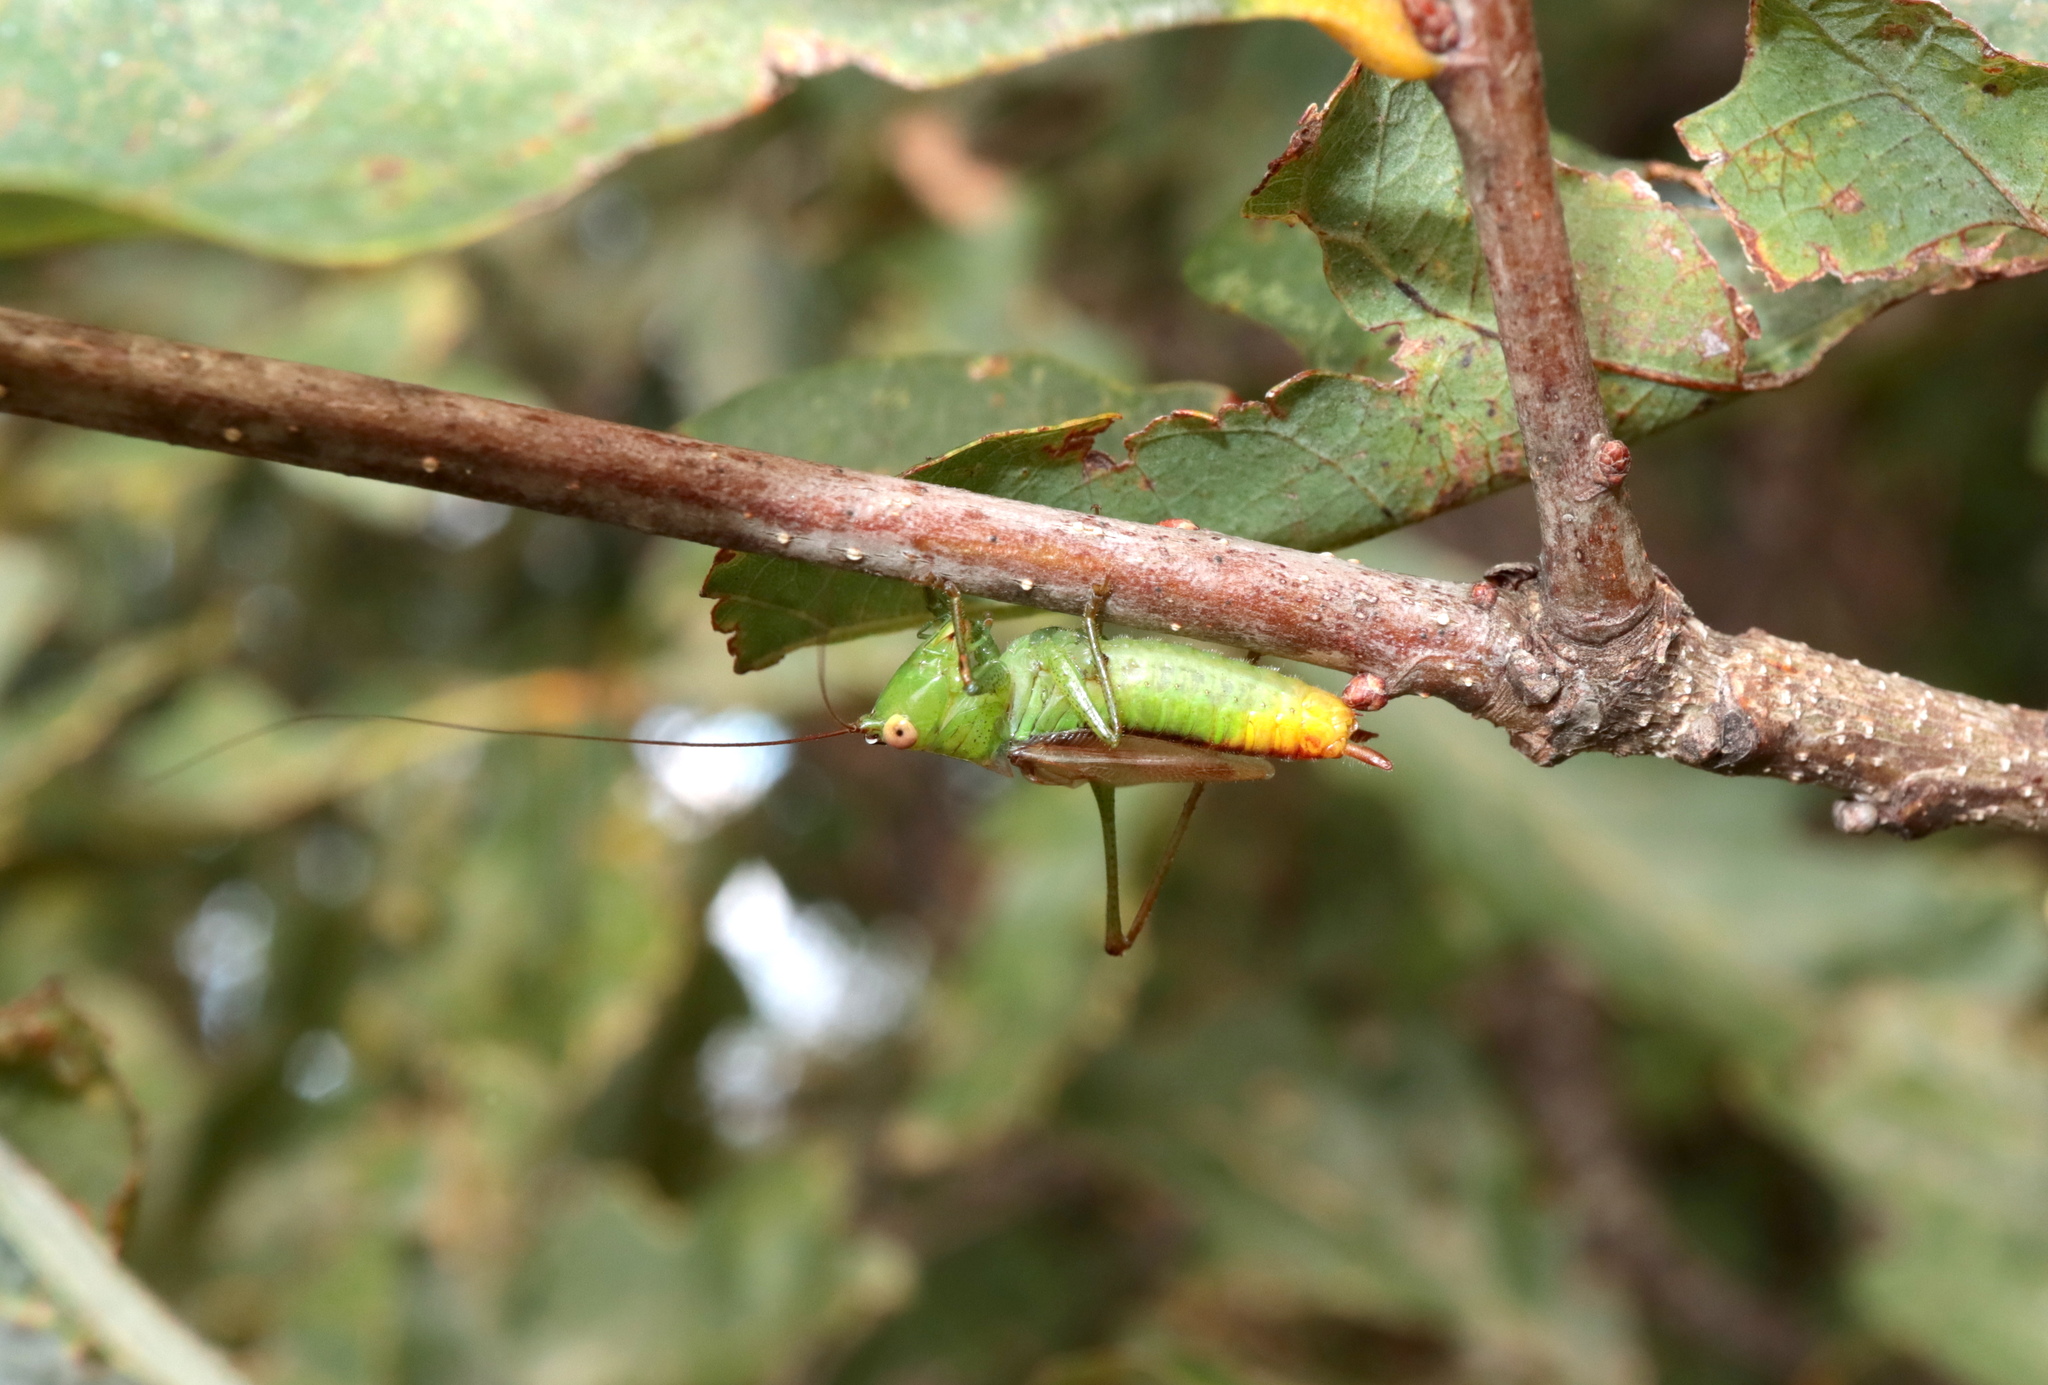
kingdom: Animalia
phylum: Arthropoda
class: Insecta
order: Orthoptera
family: Tettigoniidae
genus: Conocephalus
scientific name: Conocephalus brevipennis
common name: Short-winged meadow katydid
